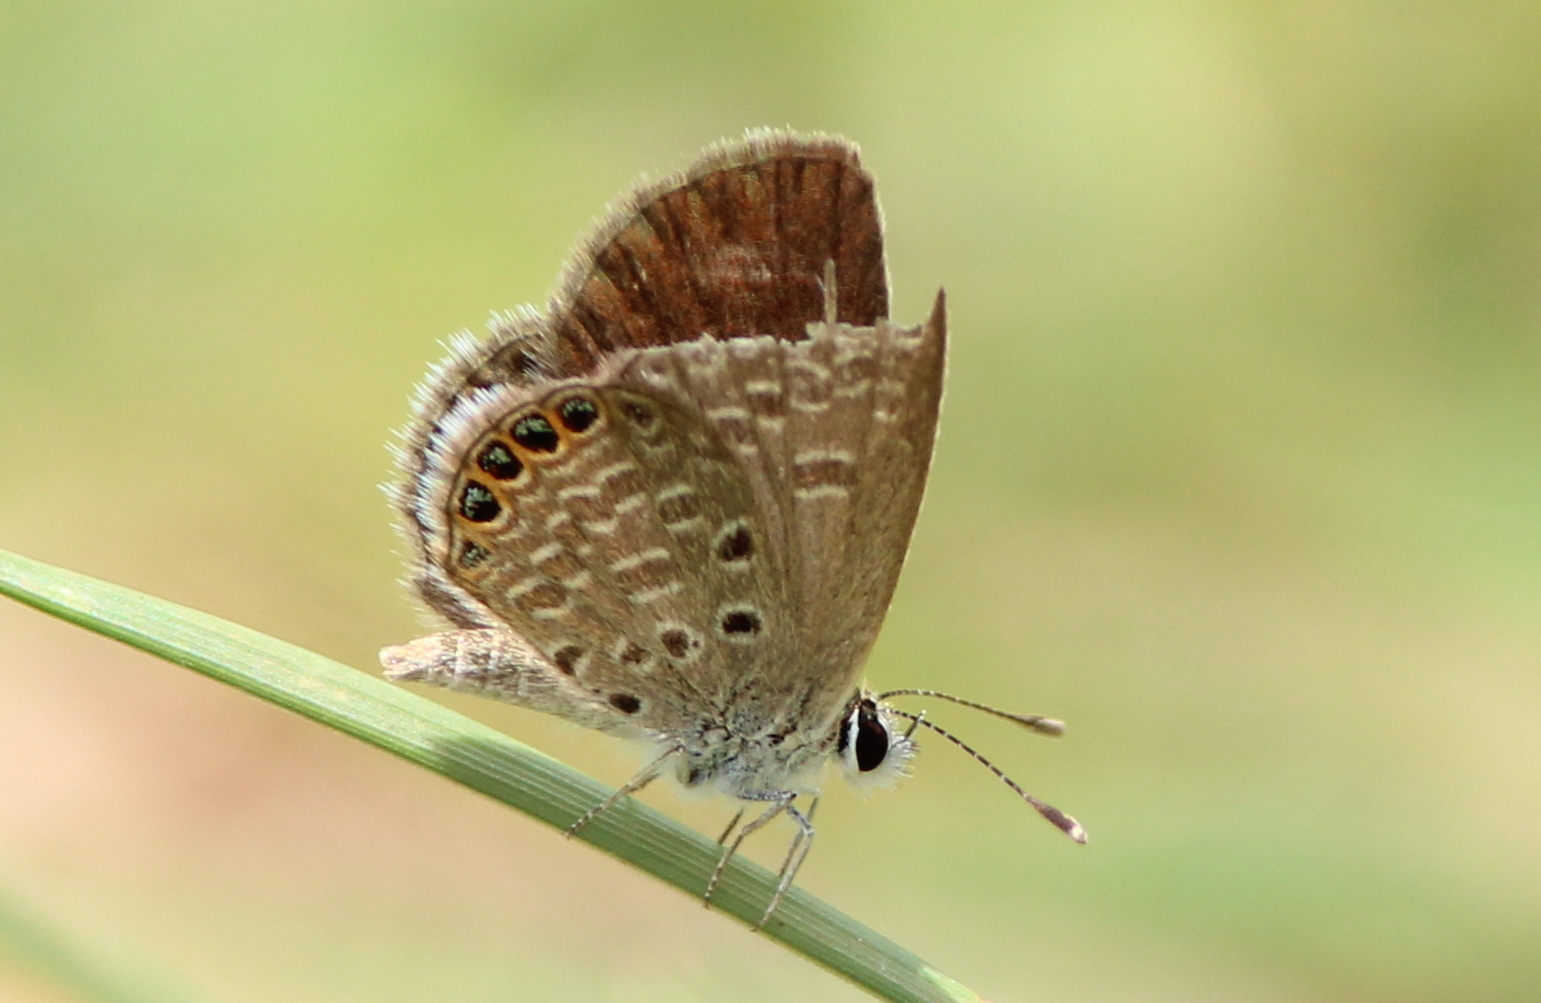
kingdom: Animalia
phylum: Arthropoda
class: Insecta
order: Lepidoptera
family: Lycaenidae
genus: Freyeria
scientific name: Freyeria putli
